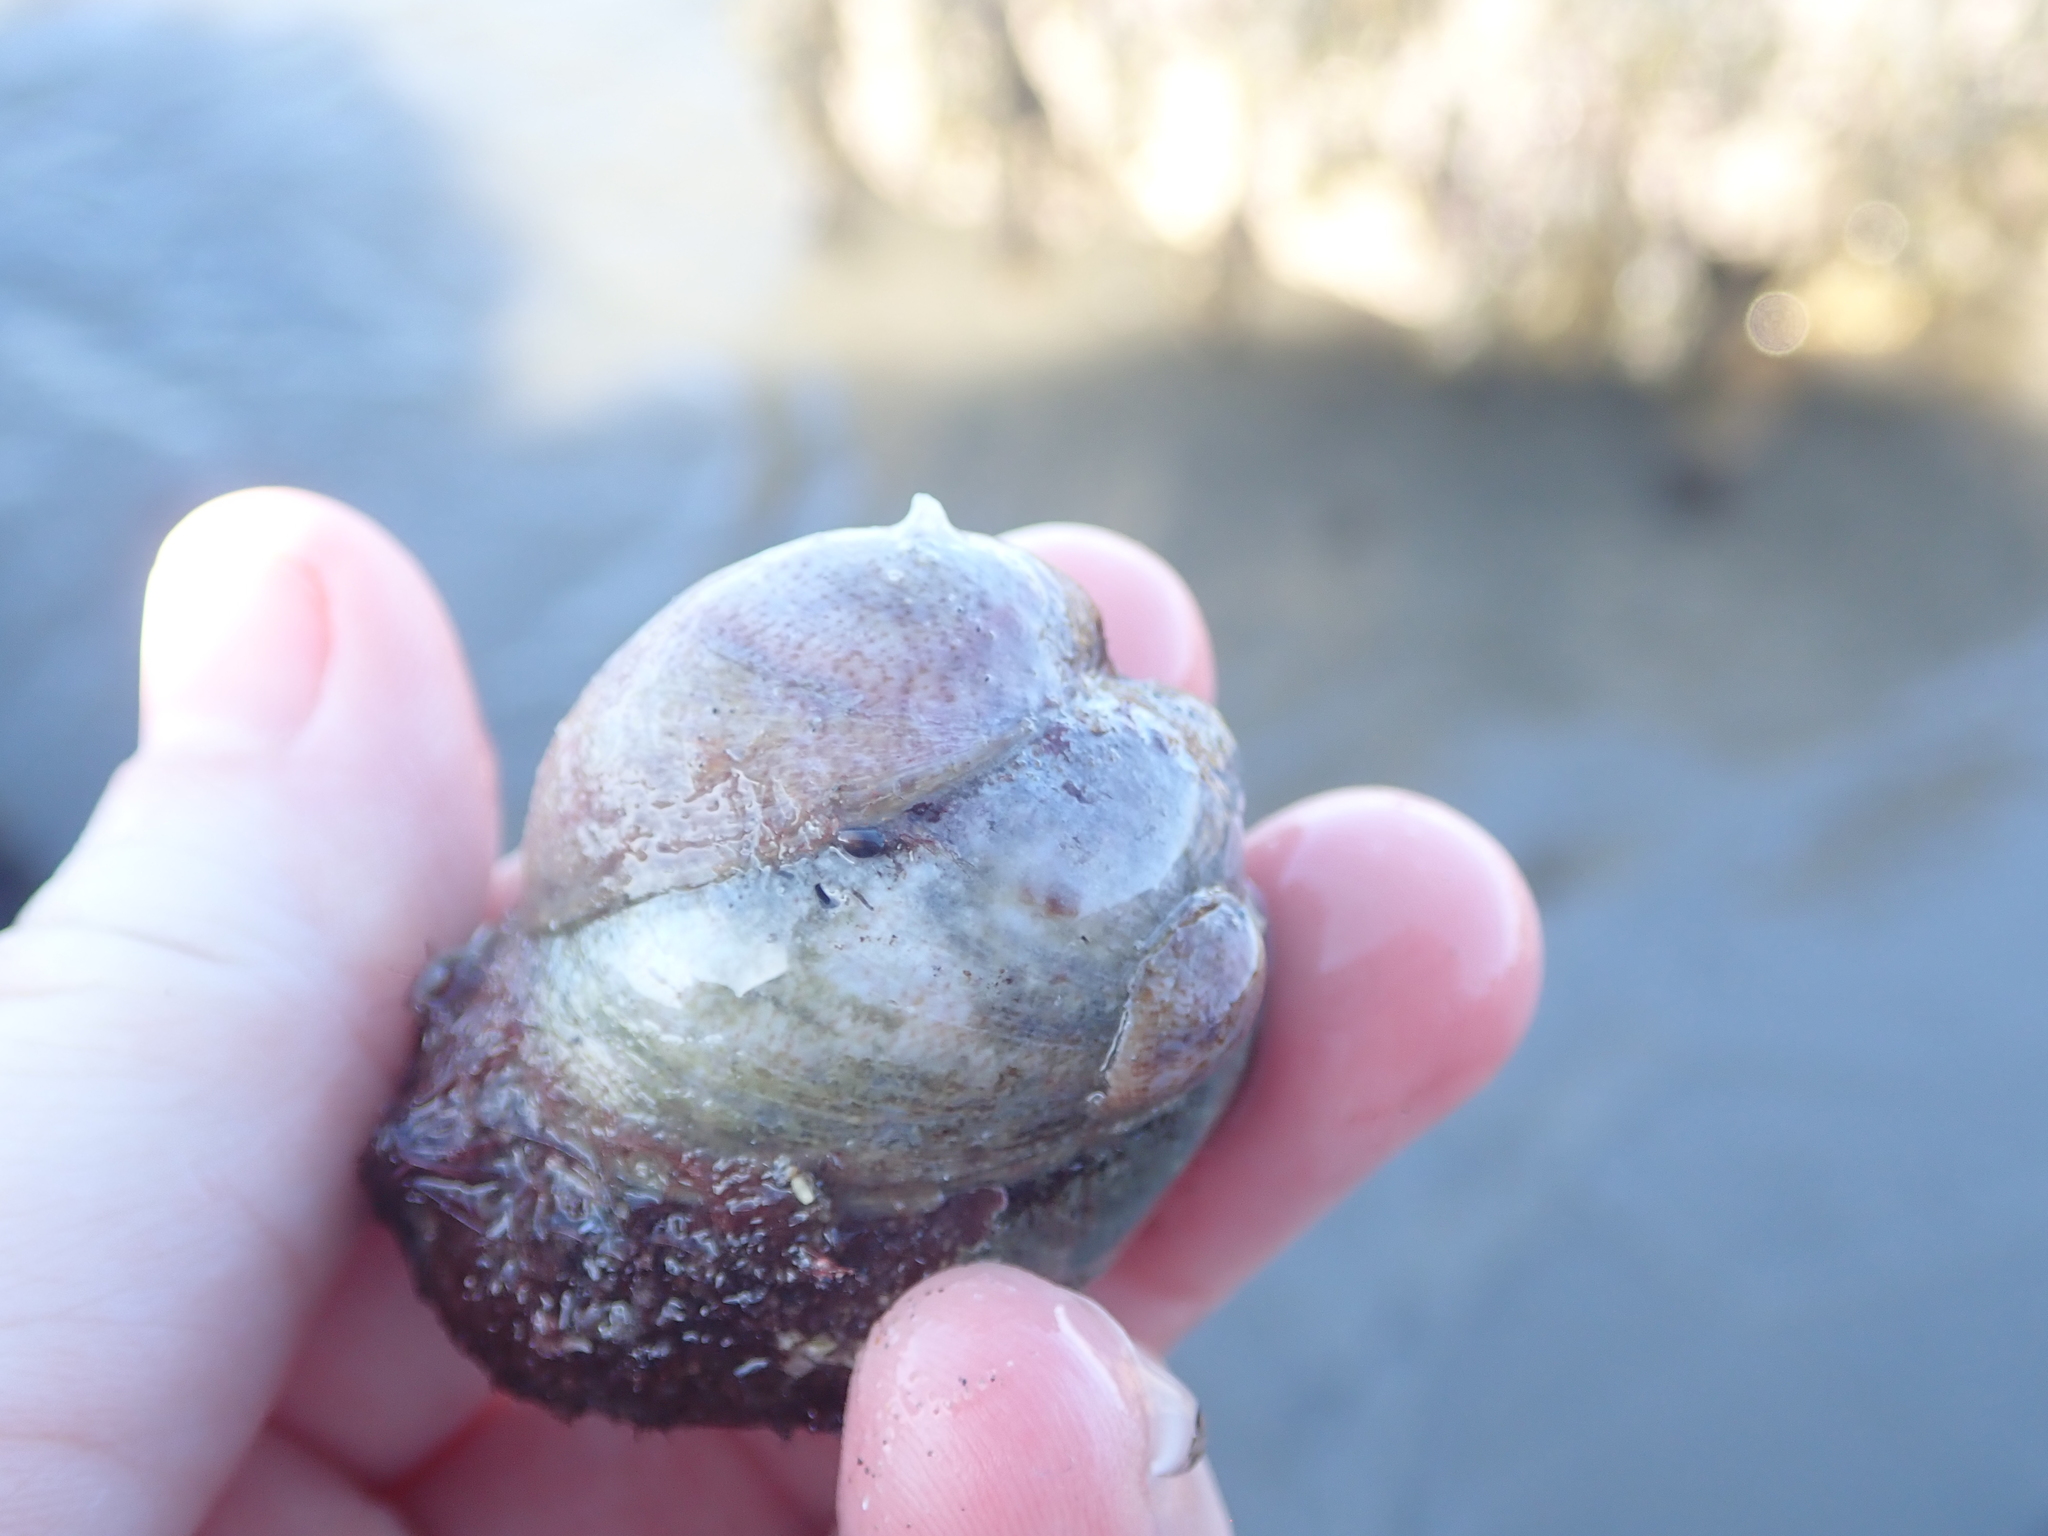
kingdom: Animalia
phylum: Mollusca
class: Gastropoda
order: Littorinimorpha
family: Calyptraeidae
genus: Crepidula
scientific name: Crepidula fornicata
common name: Slipper limpet
